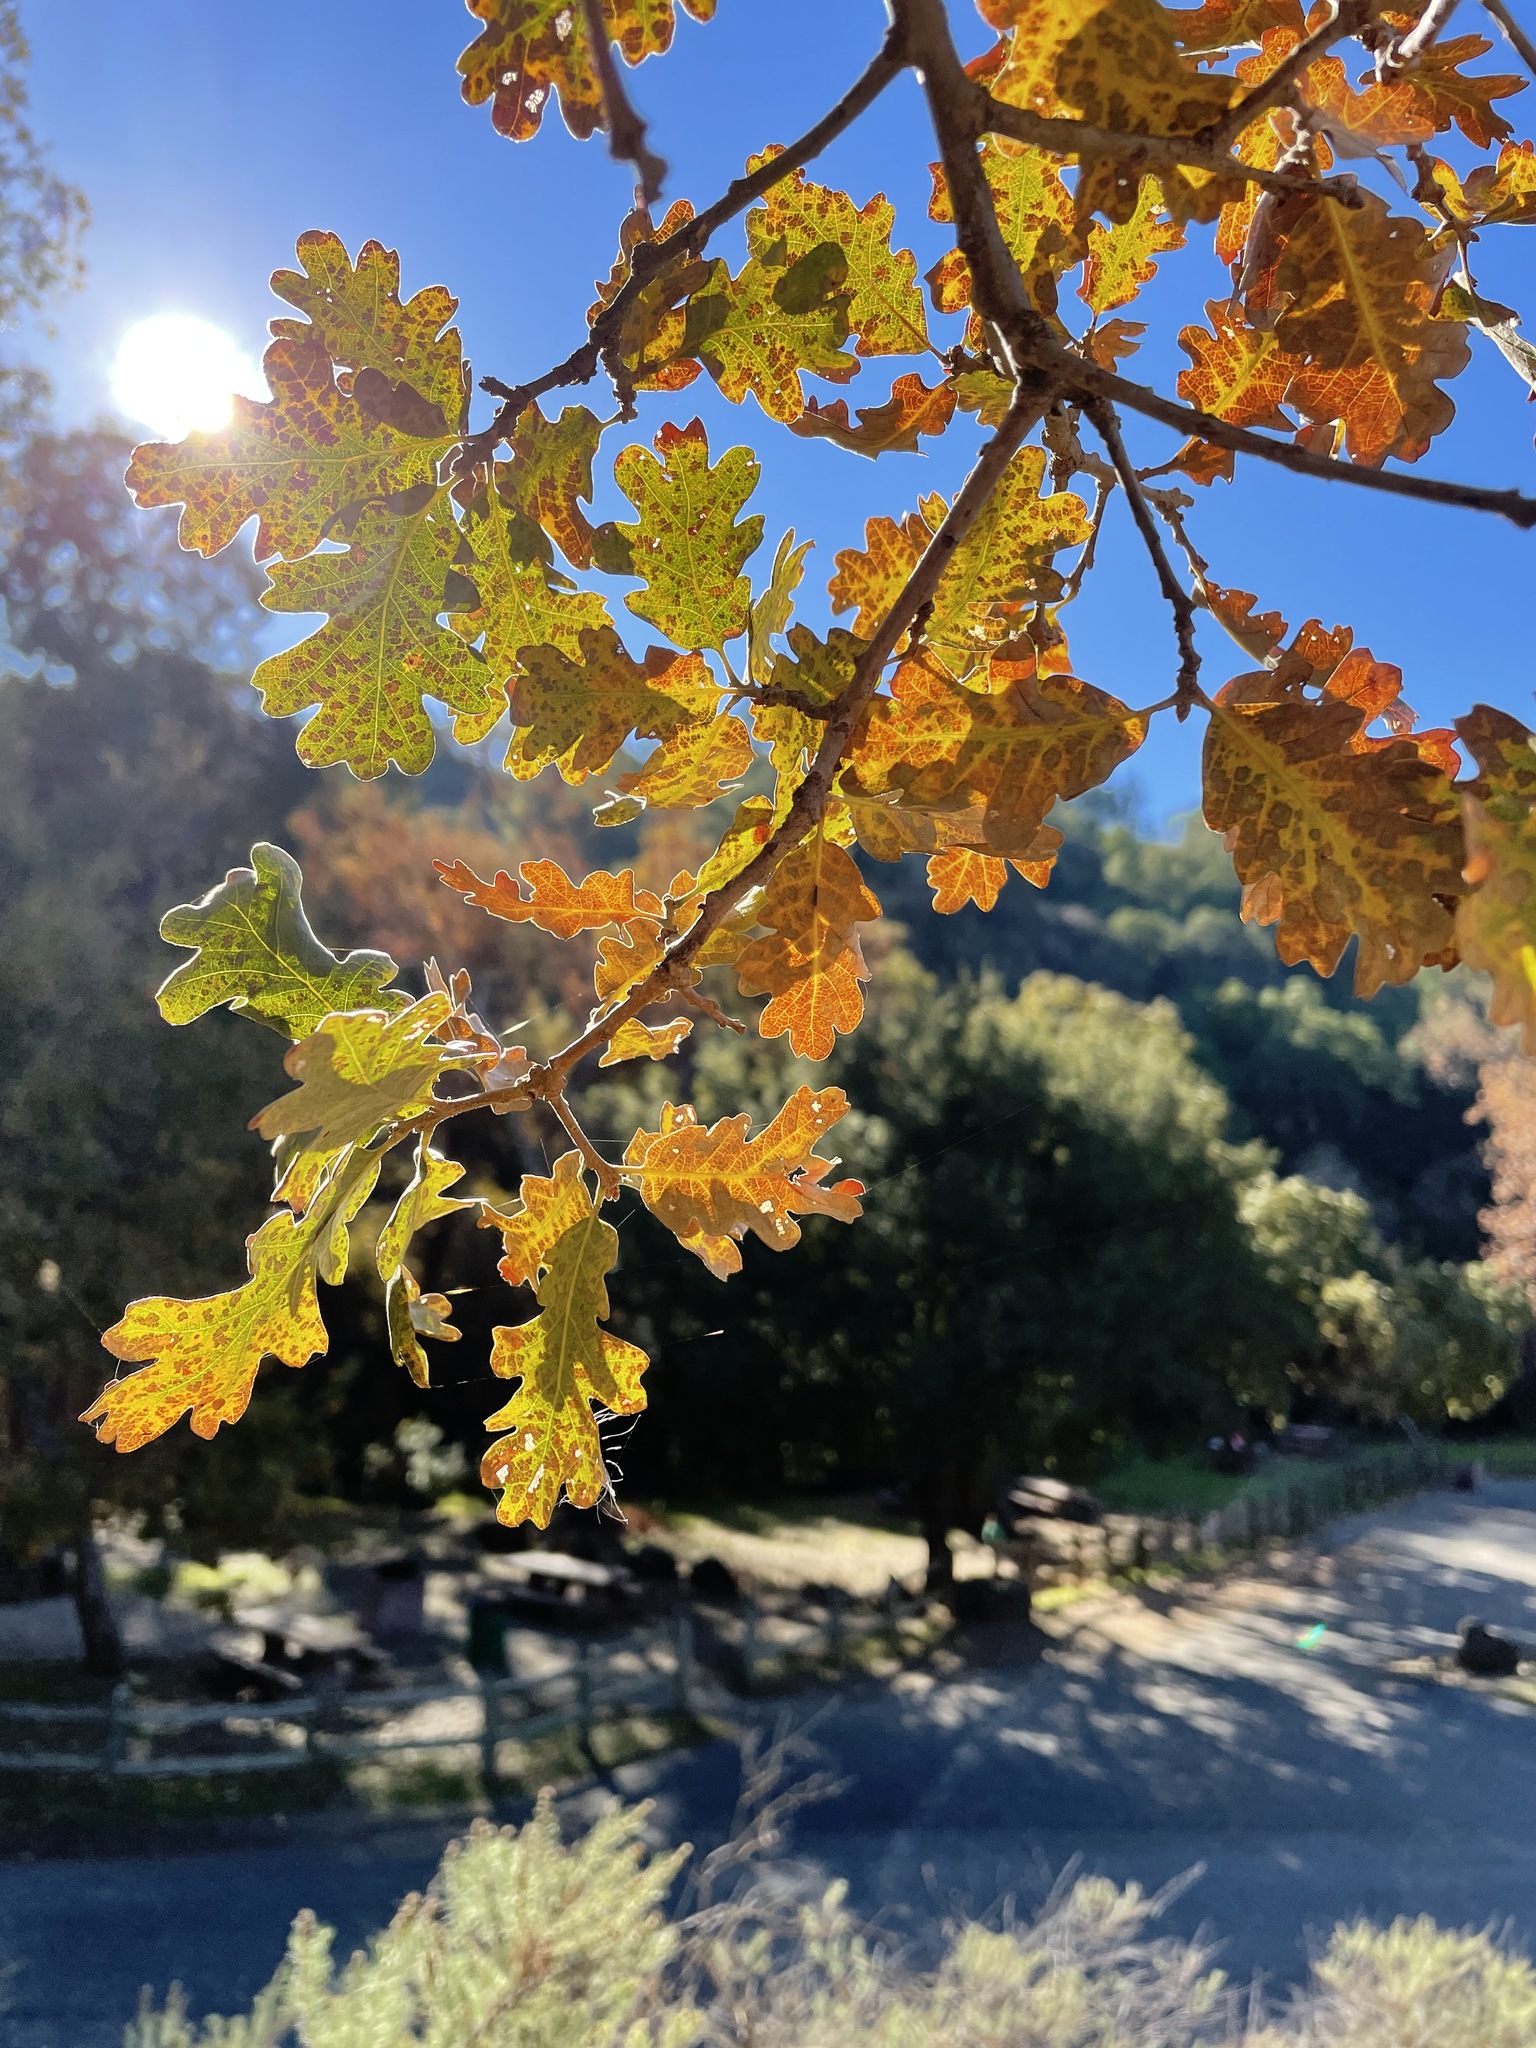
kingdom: Plantae
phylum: Tracheophyta
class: Magnoliopsida
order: Fagales
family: Fagaceae
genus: Quercus
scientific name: Quercus lobata
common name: Valley oak
